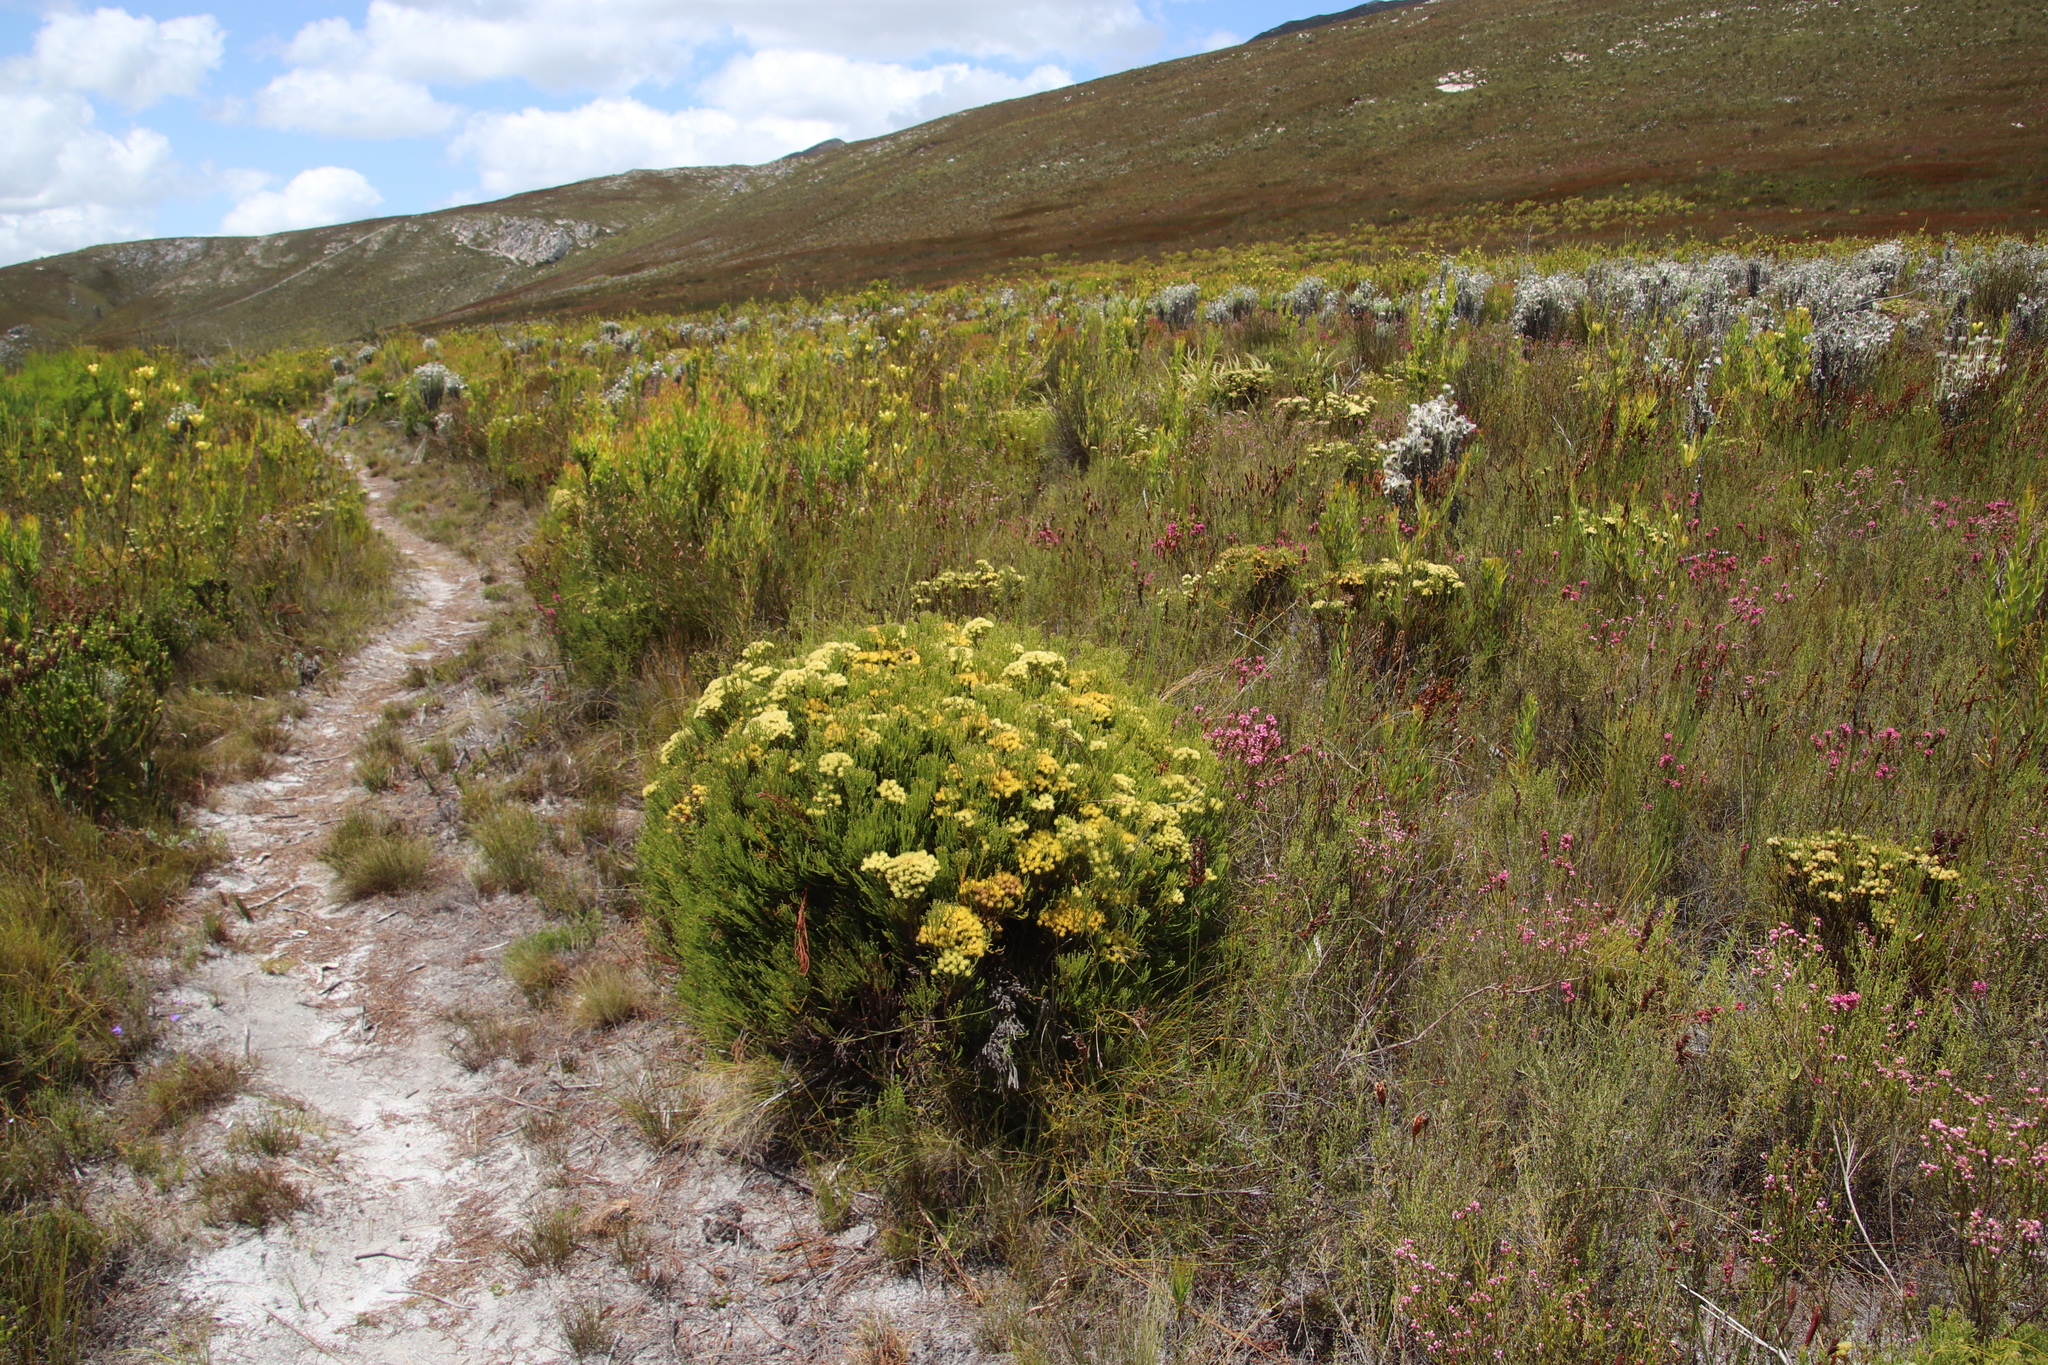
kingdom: Plantae
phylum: Tracheophyta
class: Magnoliopsida
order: Bruniales
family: Bruniaceae
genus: Brunia
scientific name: Brunia paleacea
